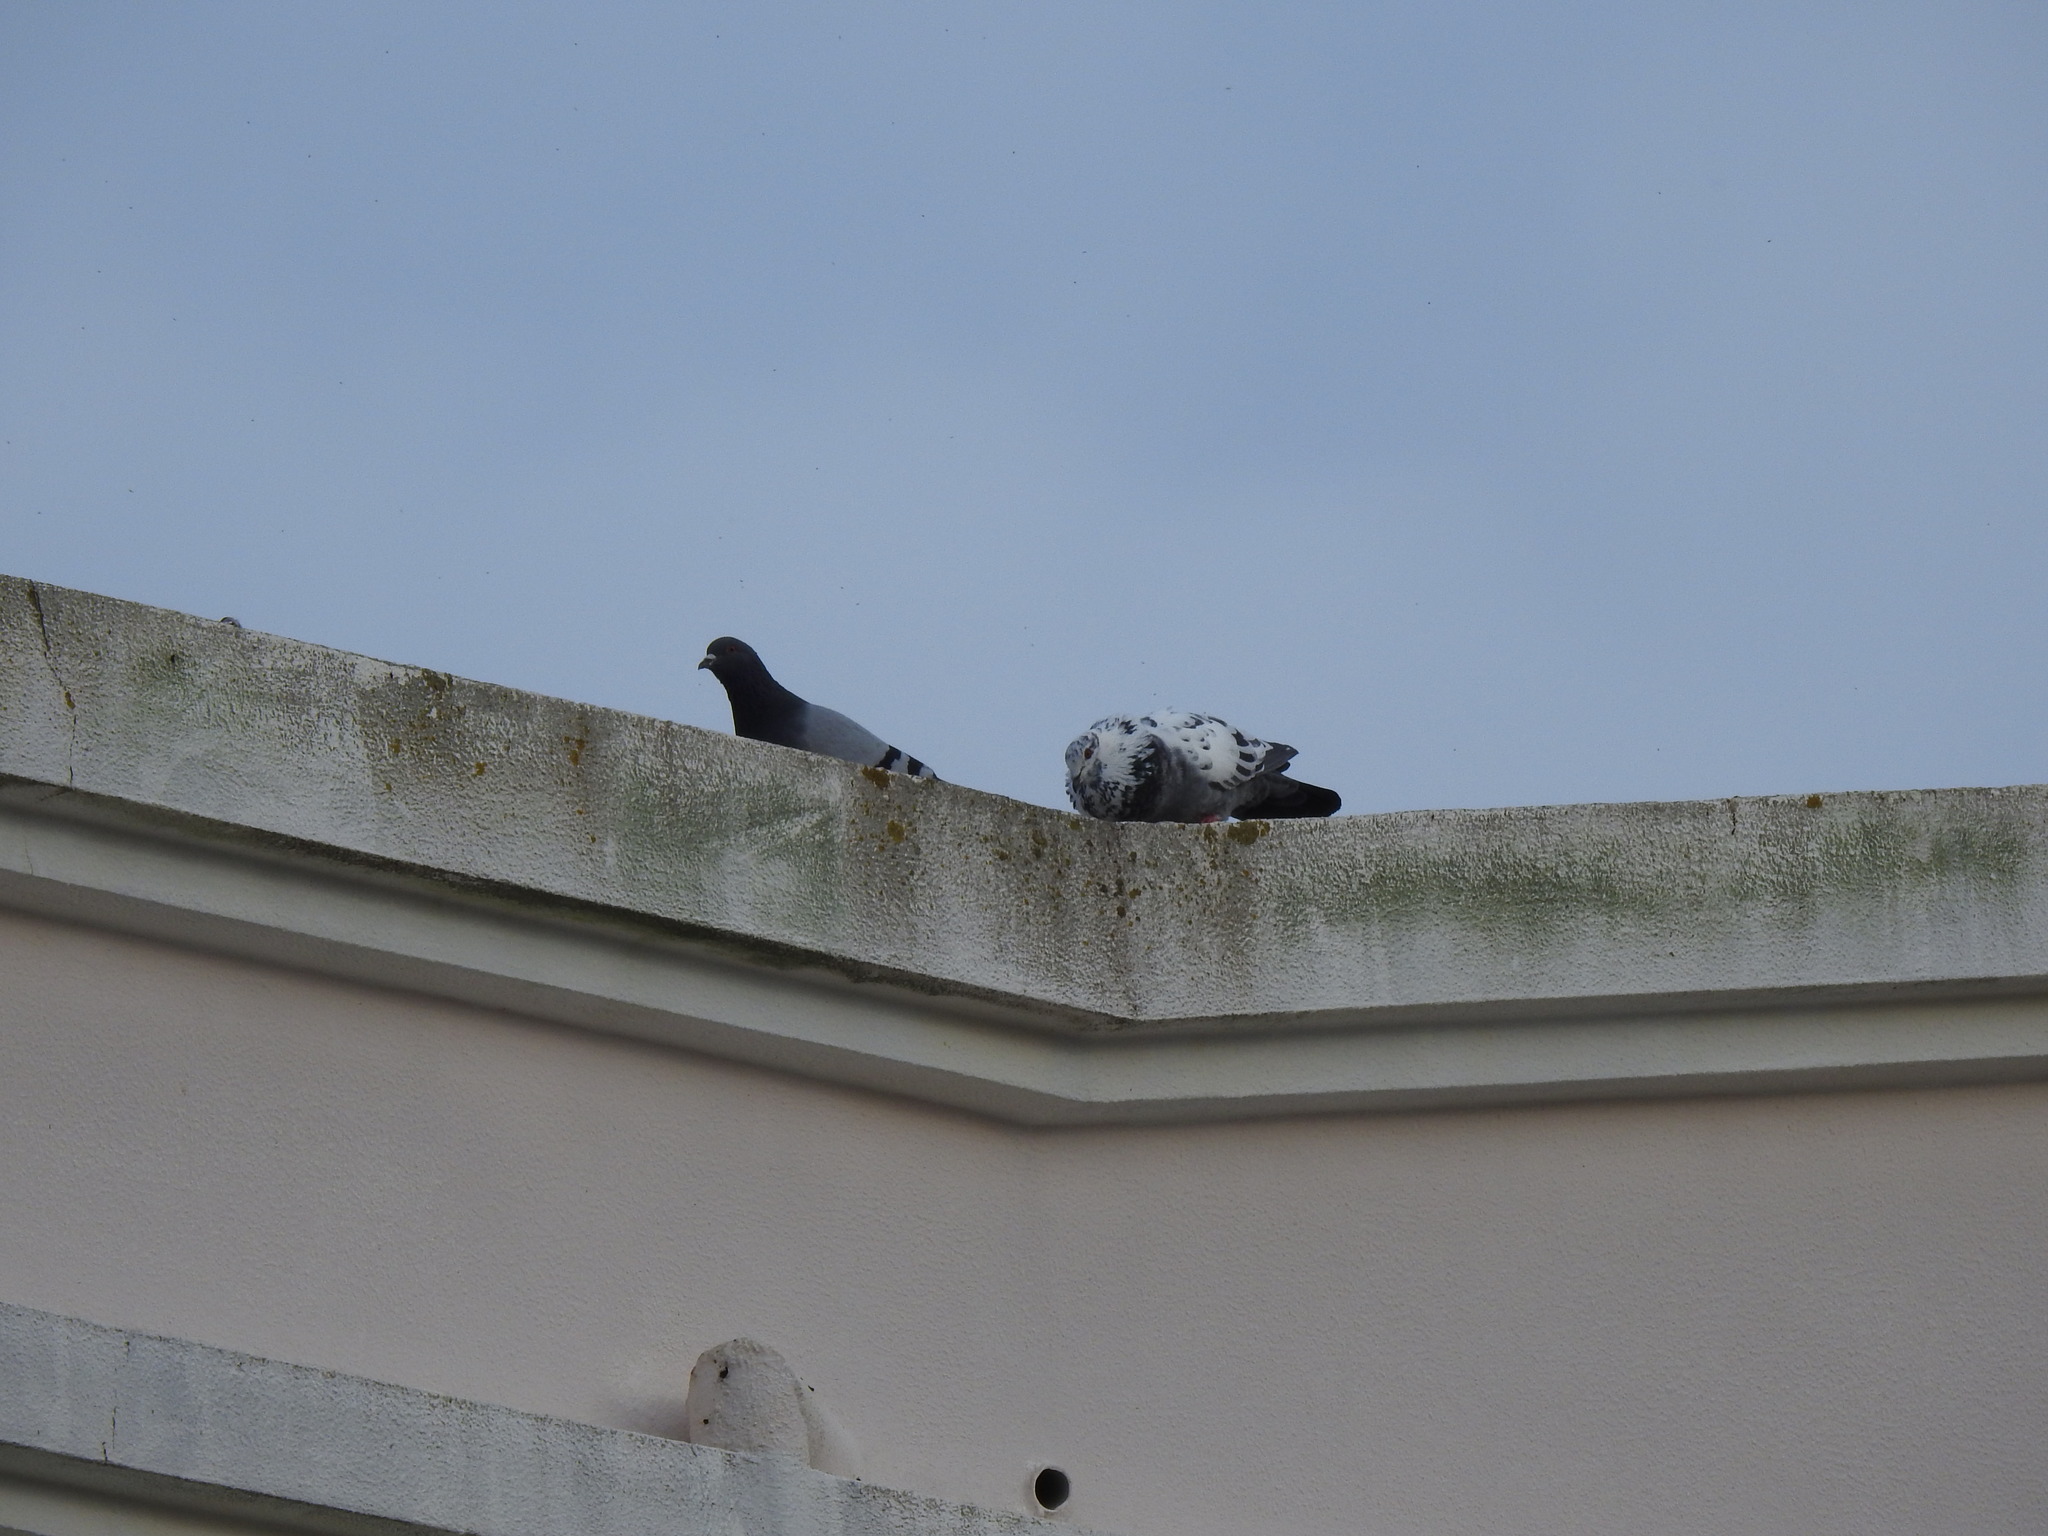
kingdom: Animalia
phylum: Chordata
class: Aves
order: Columbiformes
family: Columbidae
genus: Columba
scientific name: Columba livia
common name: Rock pigeon
